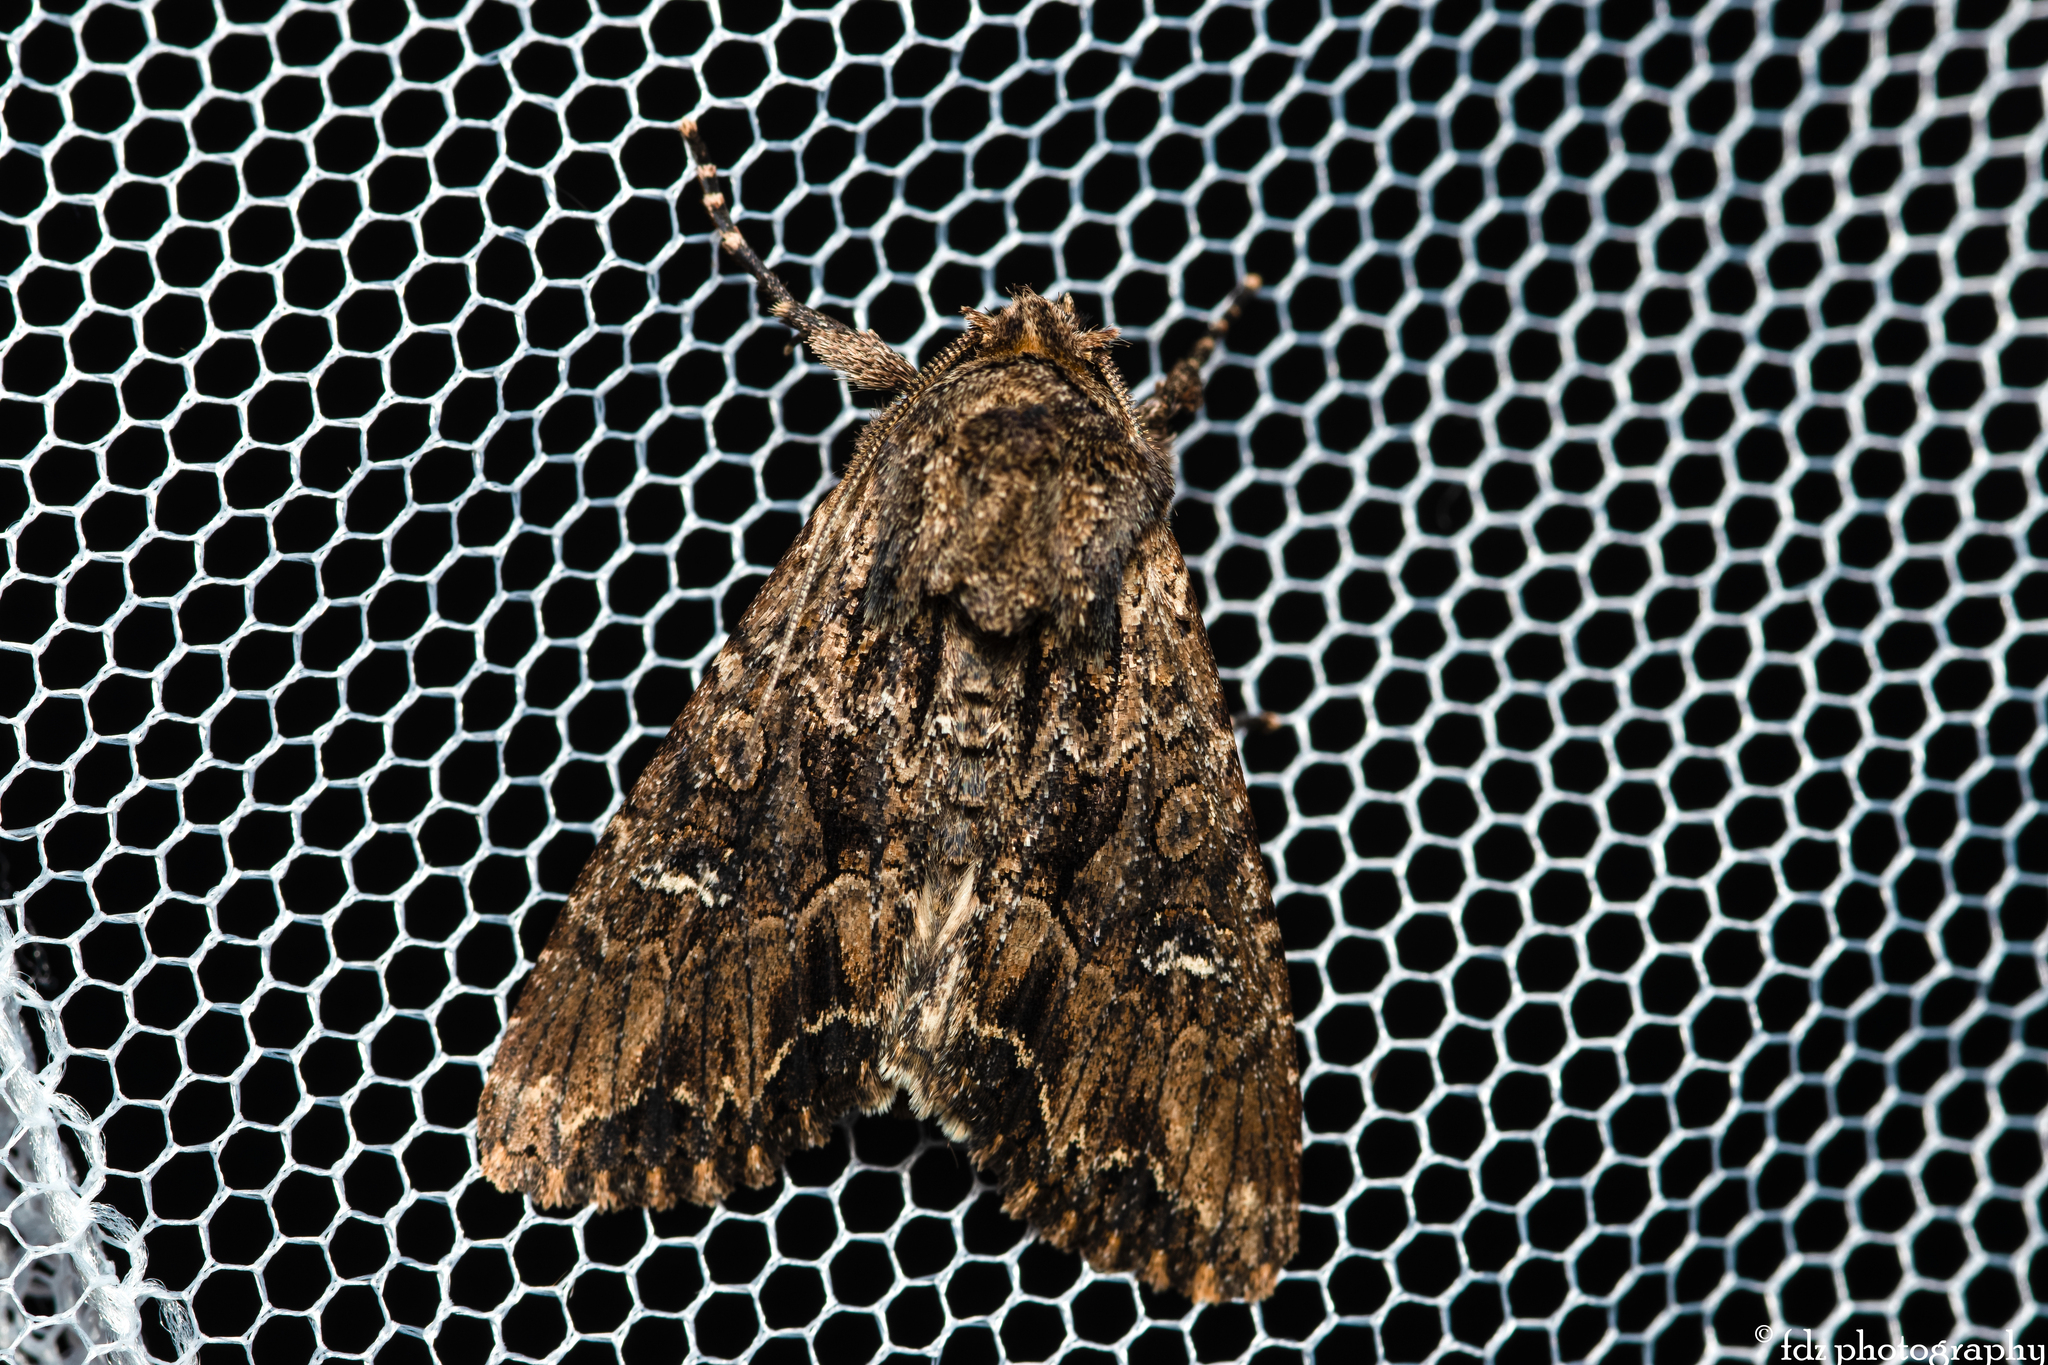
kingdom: Animalia
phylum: Arthropoda
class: Insecta
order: Lepidoptera
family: Noctuidae
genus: Mniotype
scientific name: Mniotype occidentalis
